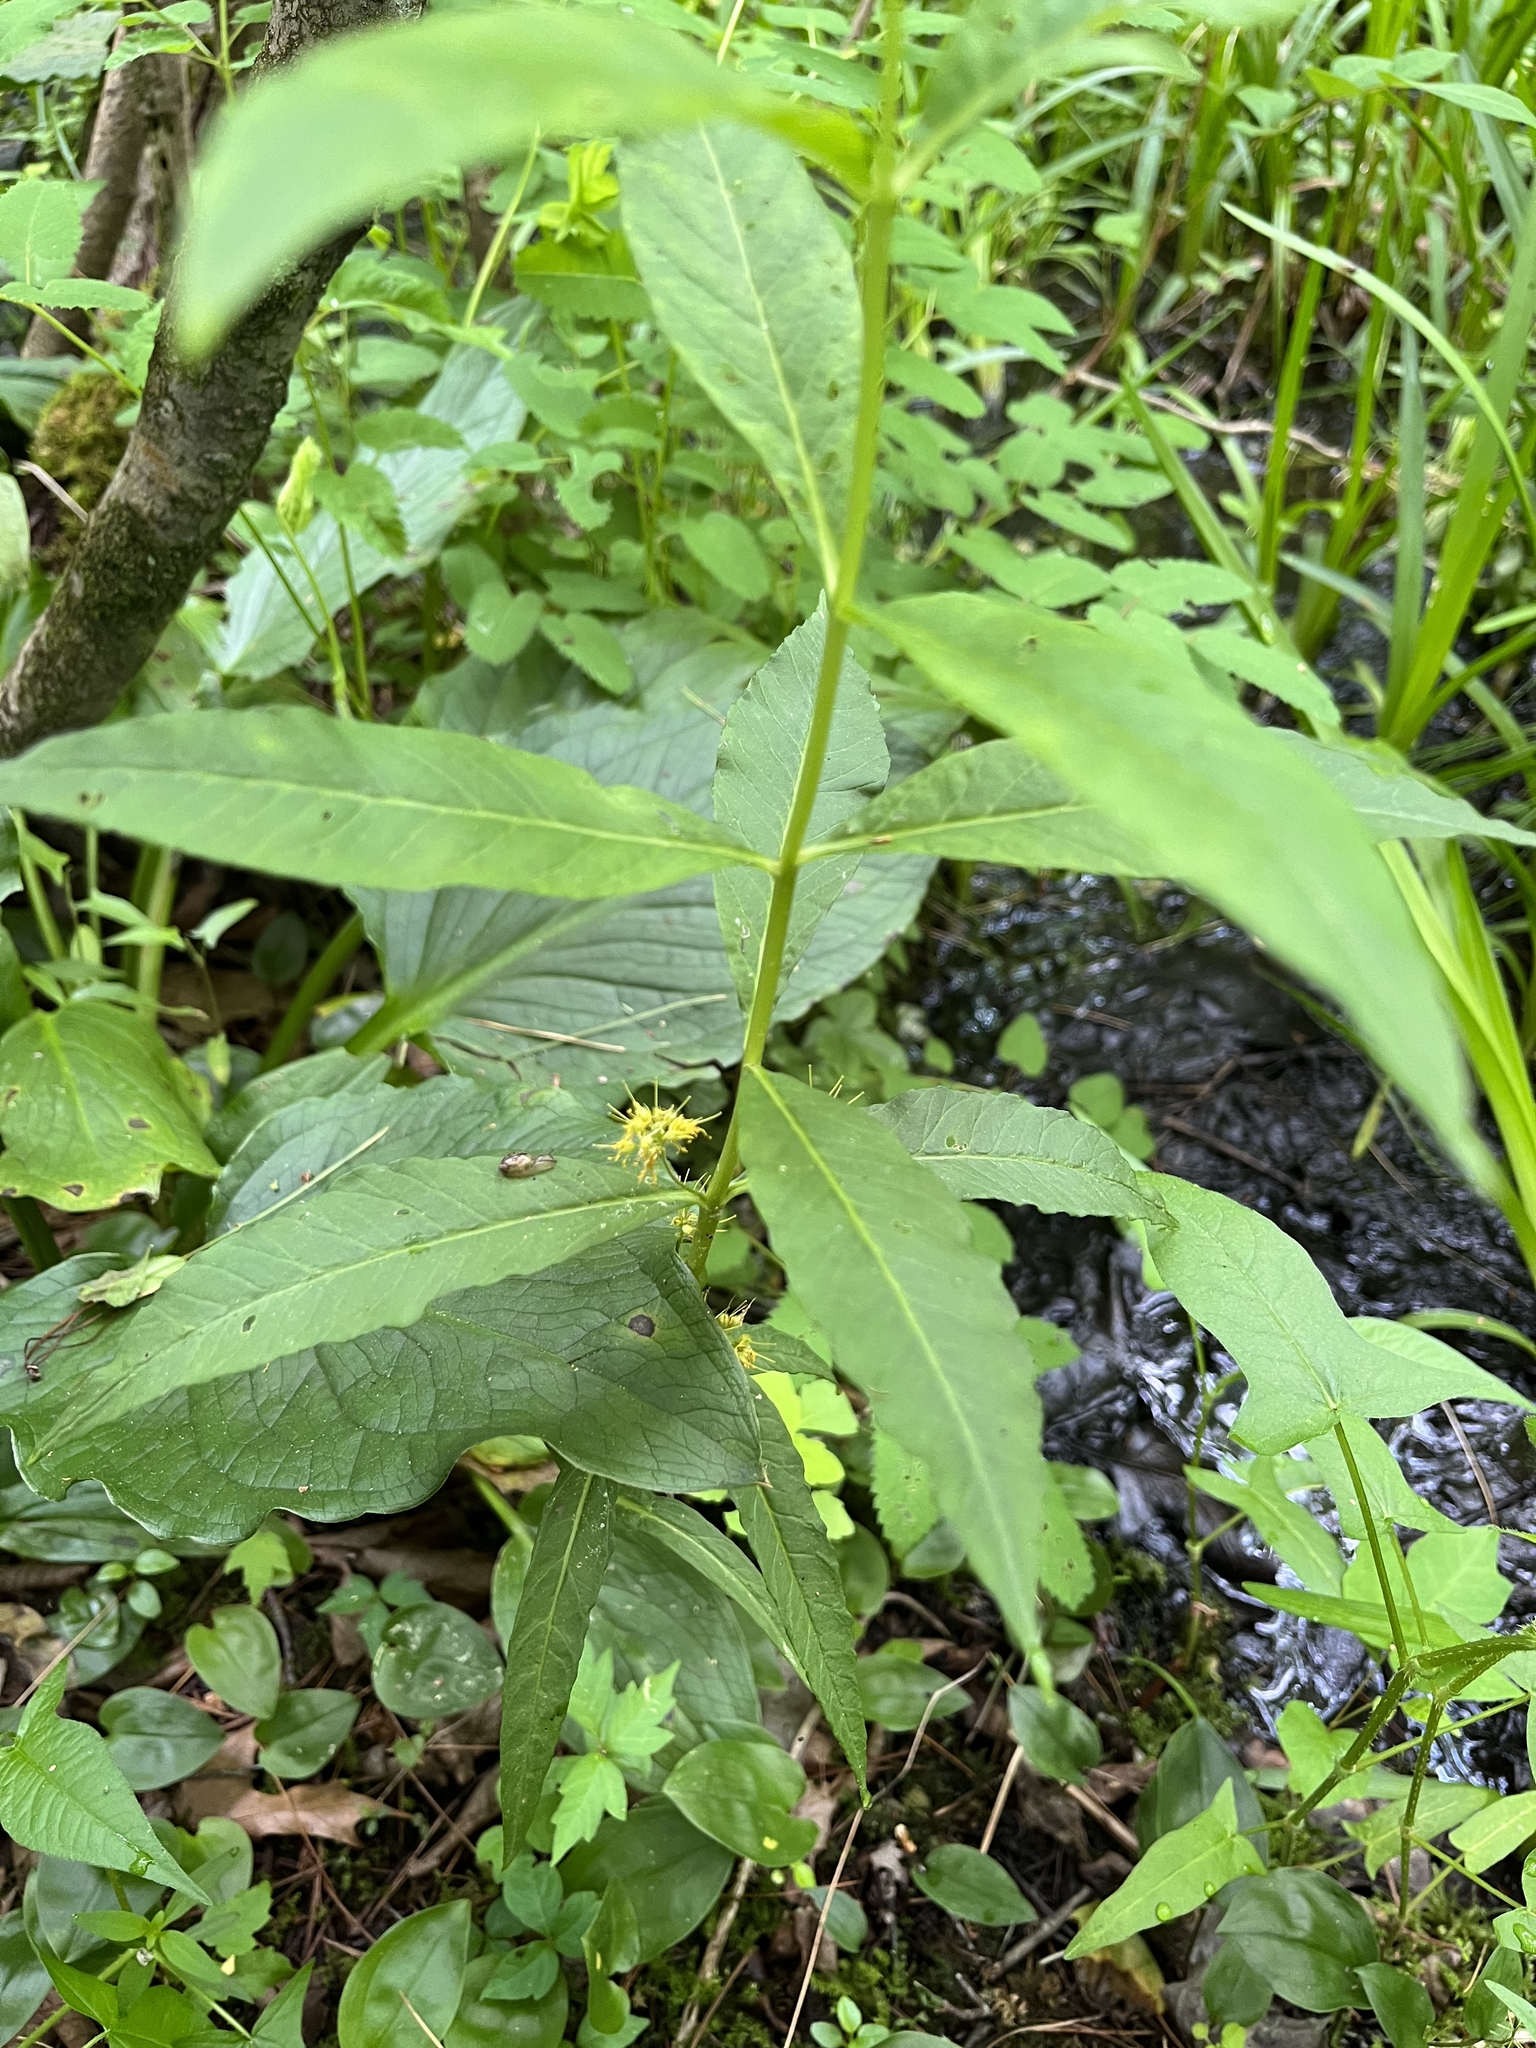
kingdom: Plantae
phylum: Tracheophyta
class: Magnoliopsida
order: Ericales
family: Primulaceae
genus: Lysimachia
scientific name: Lysimachia thyrsiflora
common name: Tufted loosestrife
